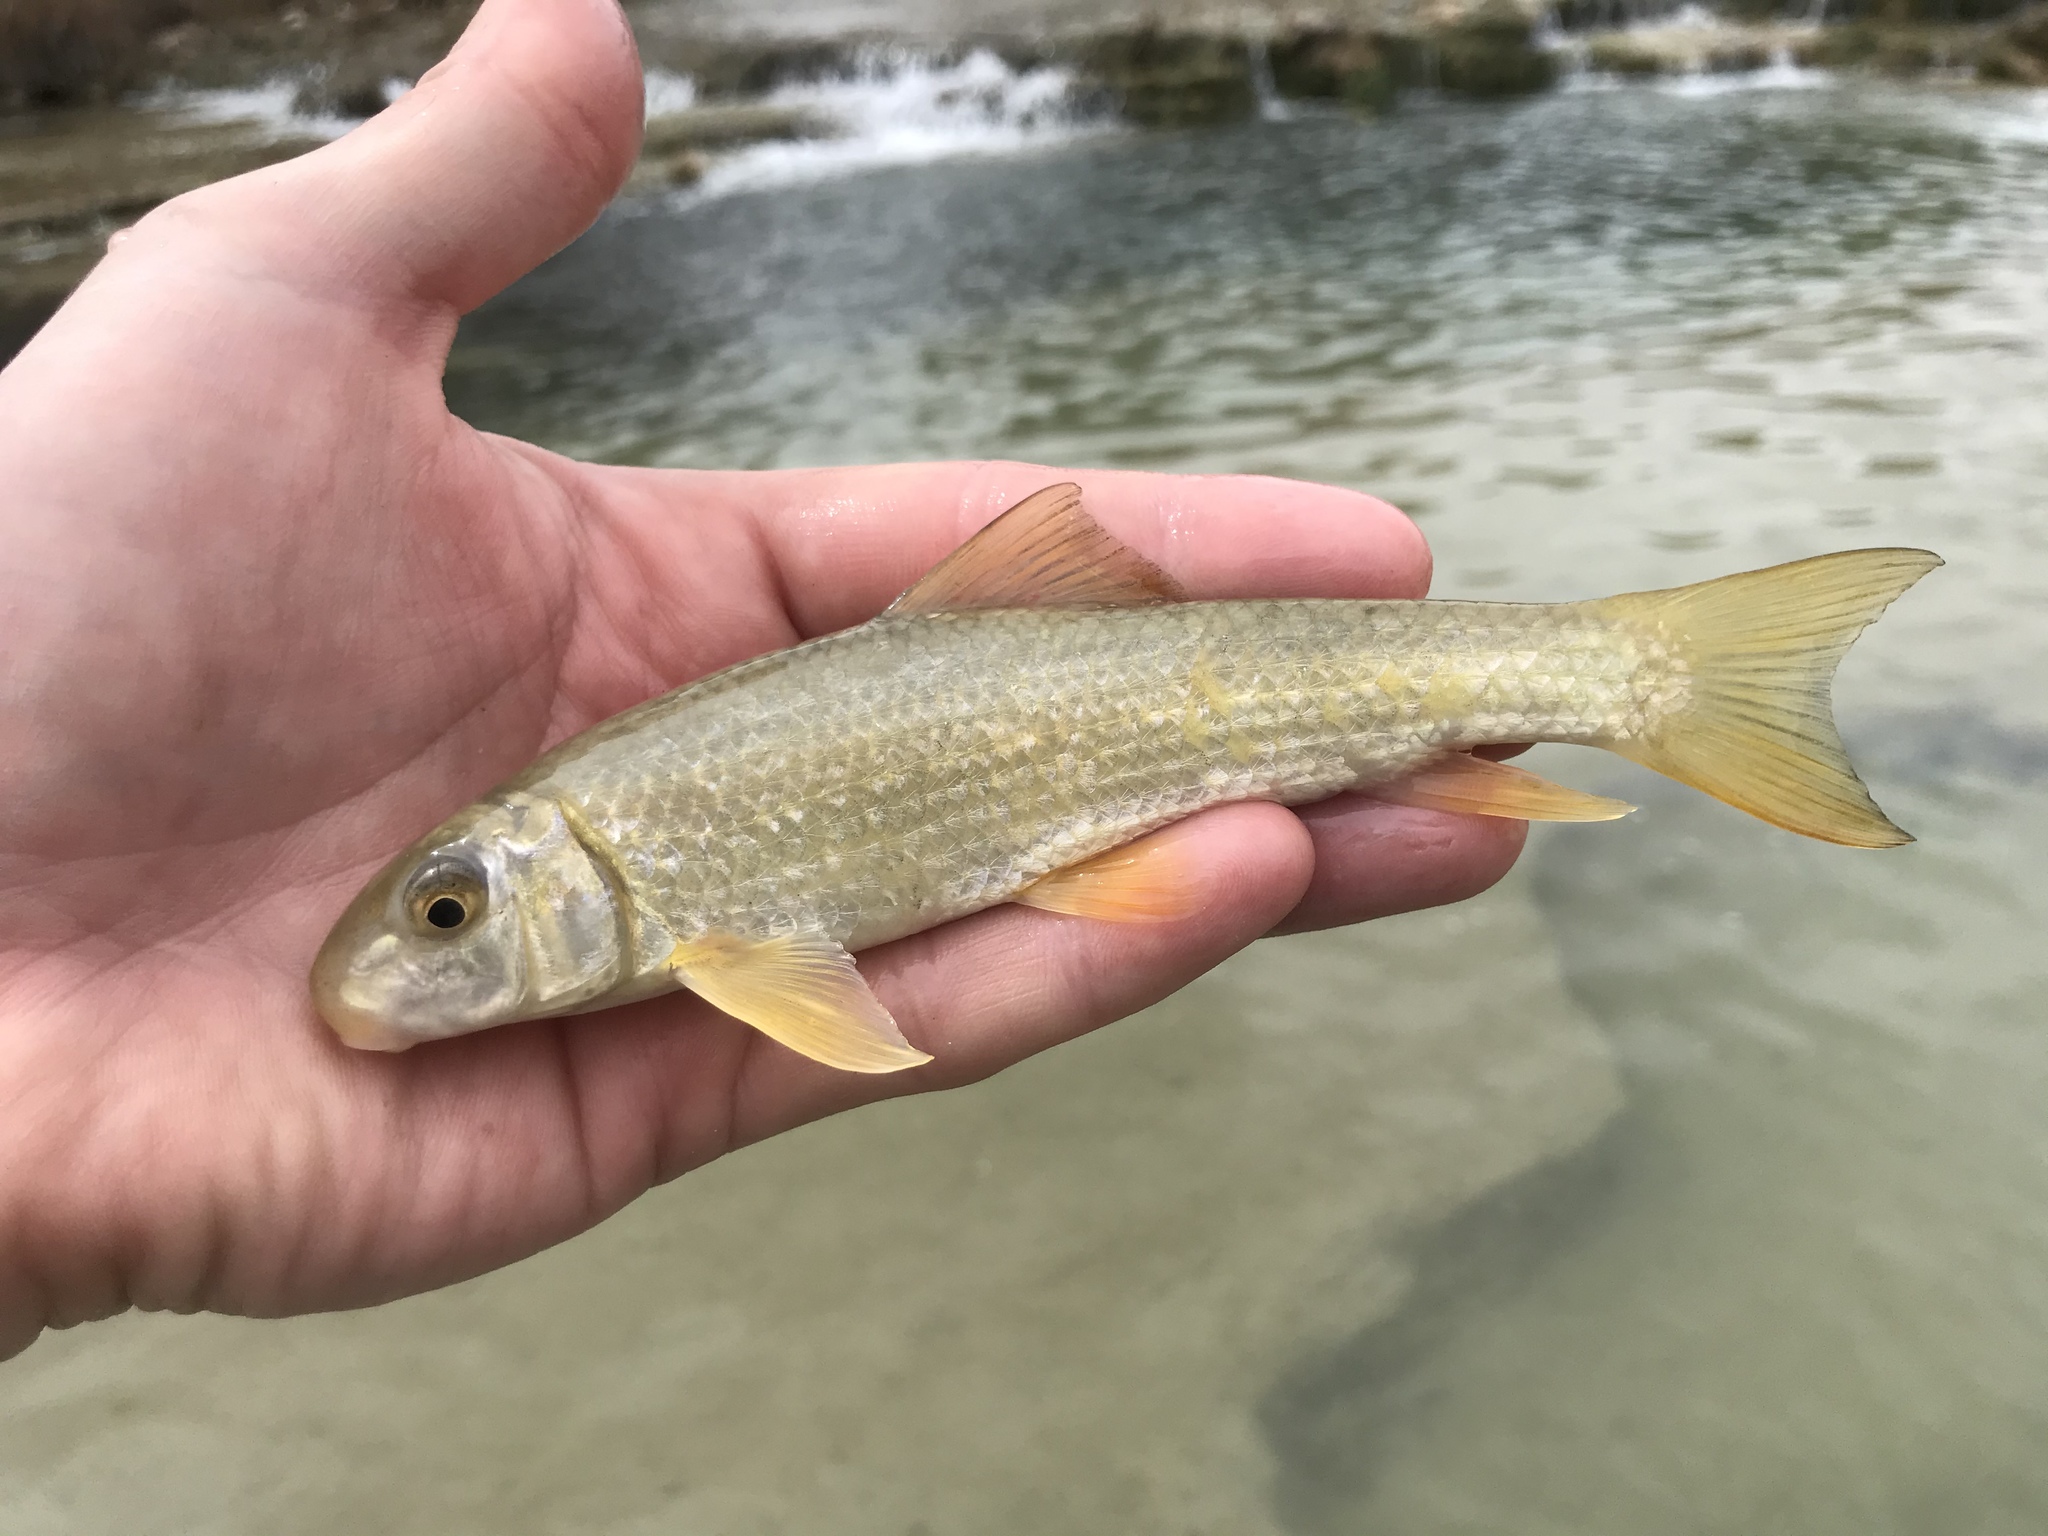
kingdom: Animalia
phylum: Chordata
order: Cypriniformes
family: Catostomidae
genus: Moxostoma
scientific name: Moxostoma congestum
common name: Gray redhorse
